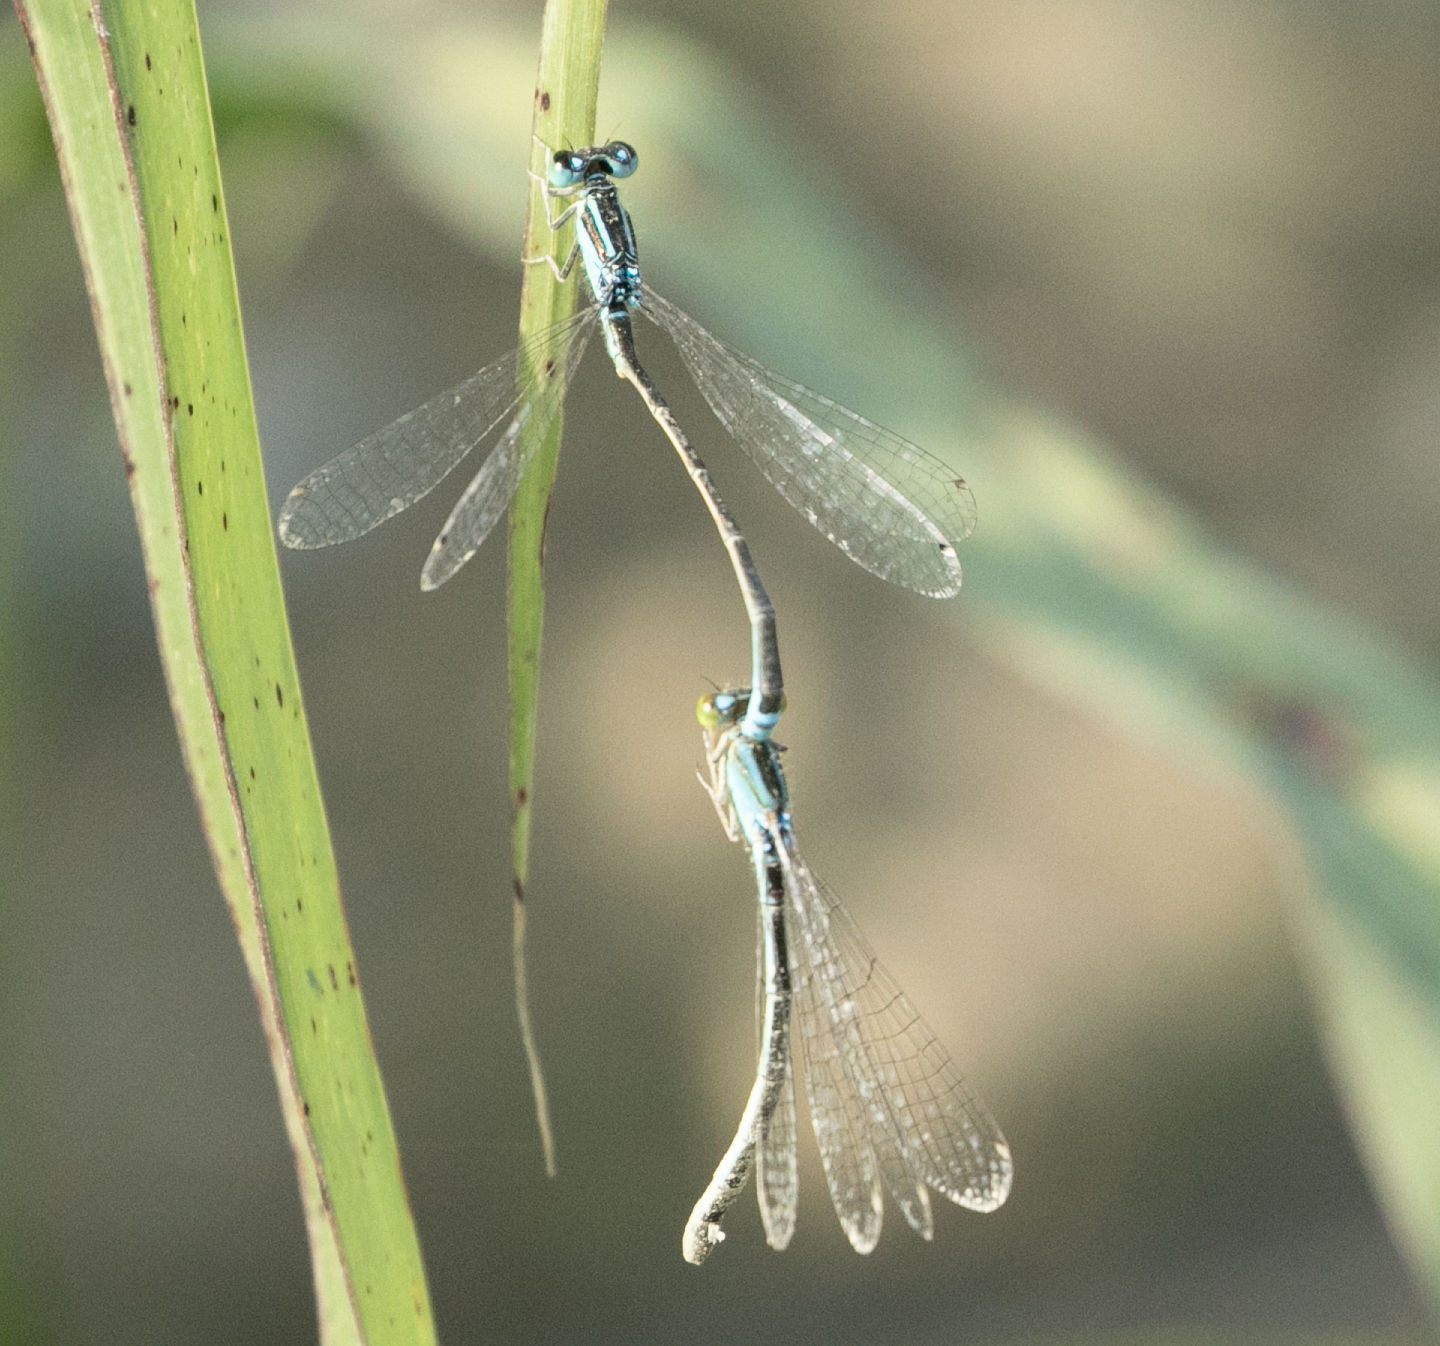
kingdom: Animalia
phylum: Arthropoda
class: Insecta
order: Odonata
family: Coenagrionidae
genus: Ischnura
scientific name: Ischnura pumilio
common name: Scarce blue-tailed damselfly
